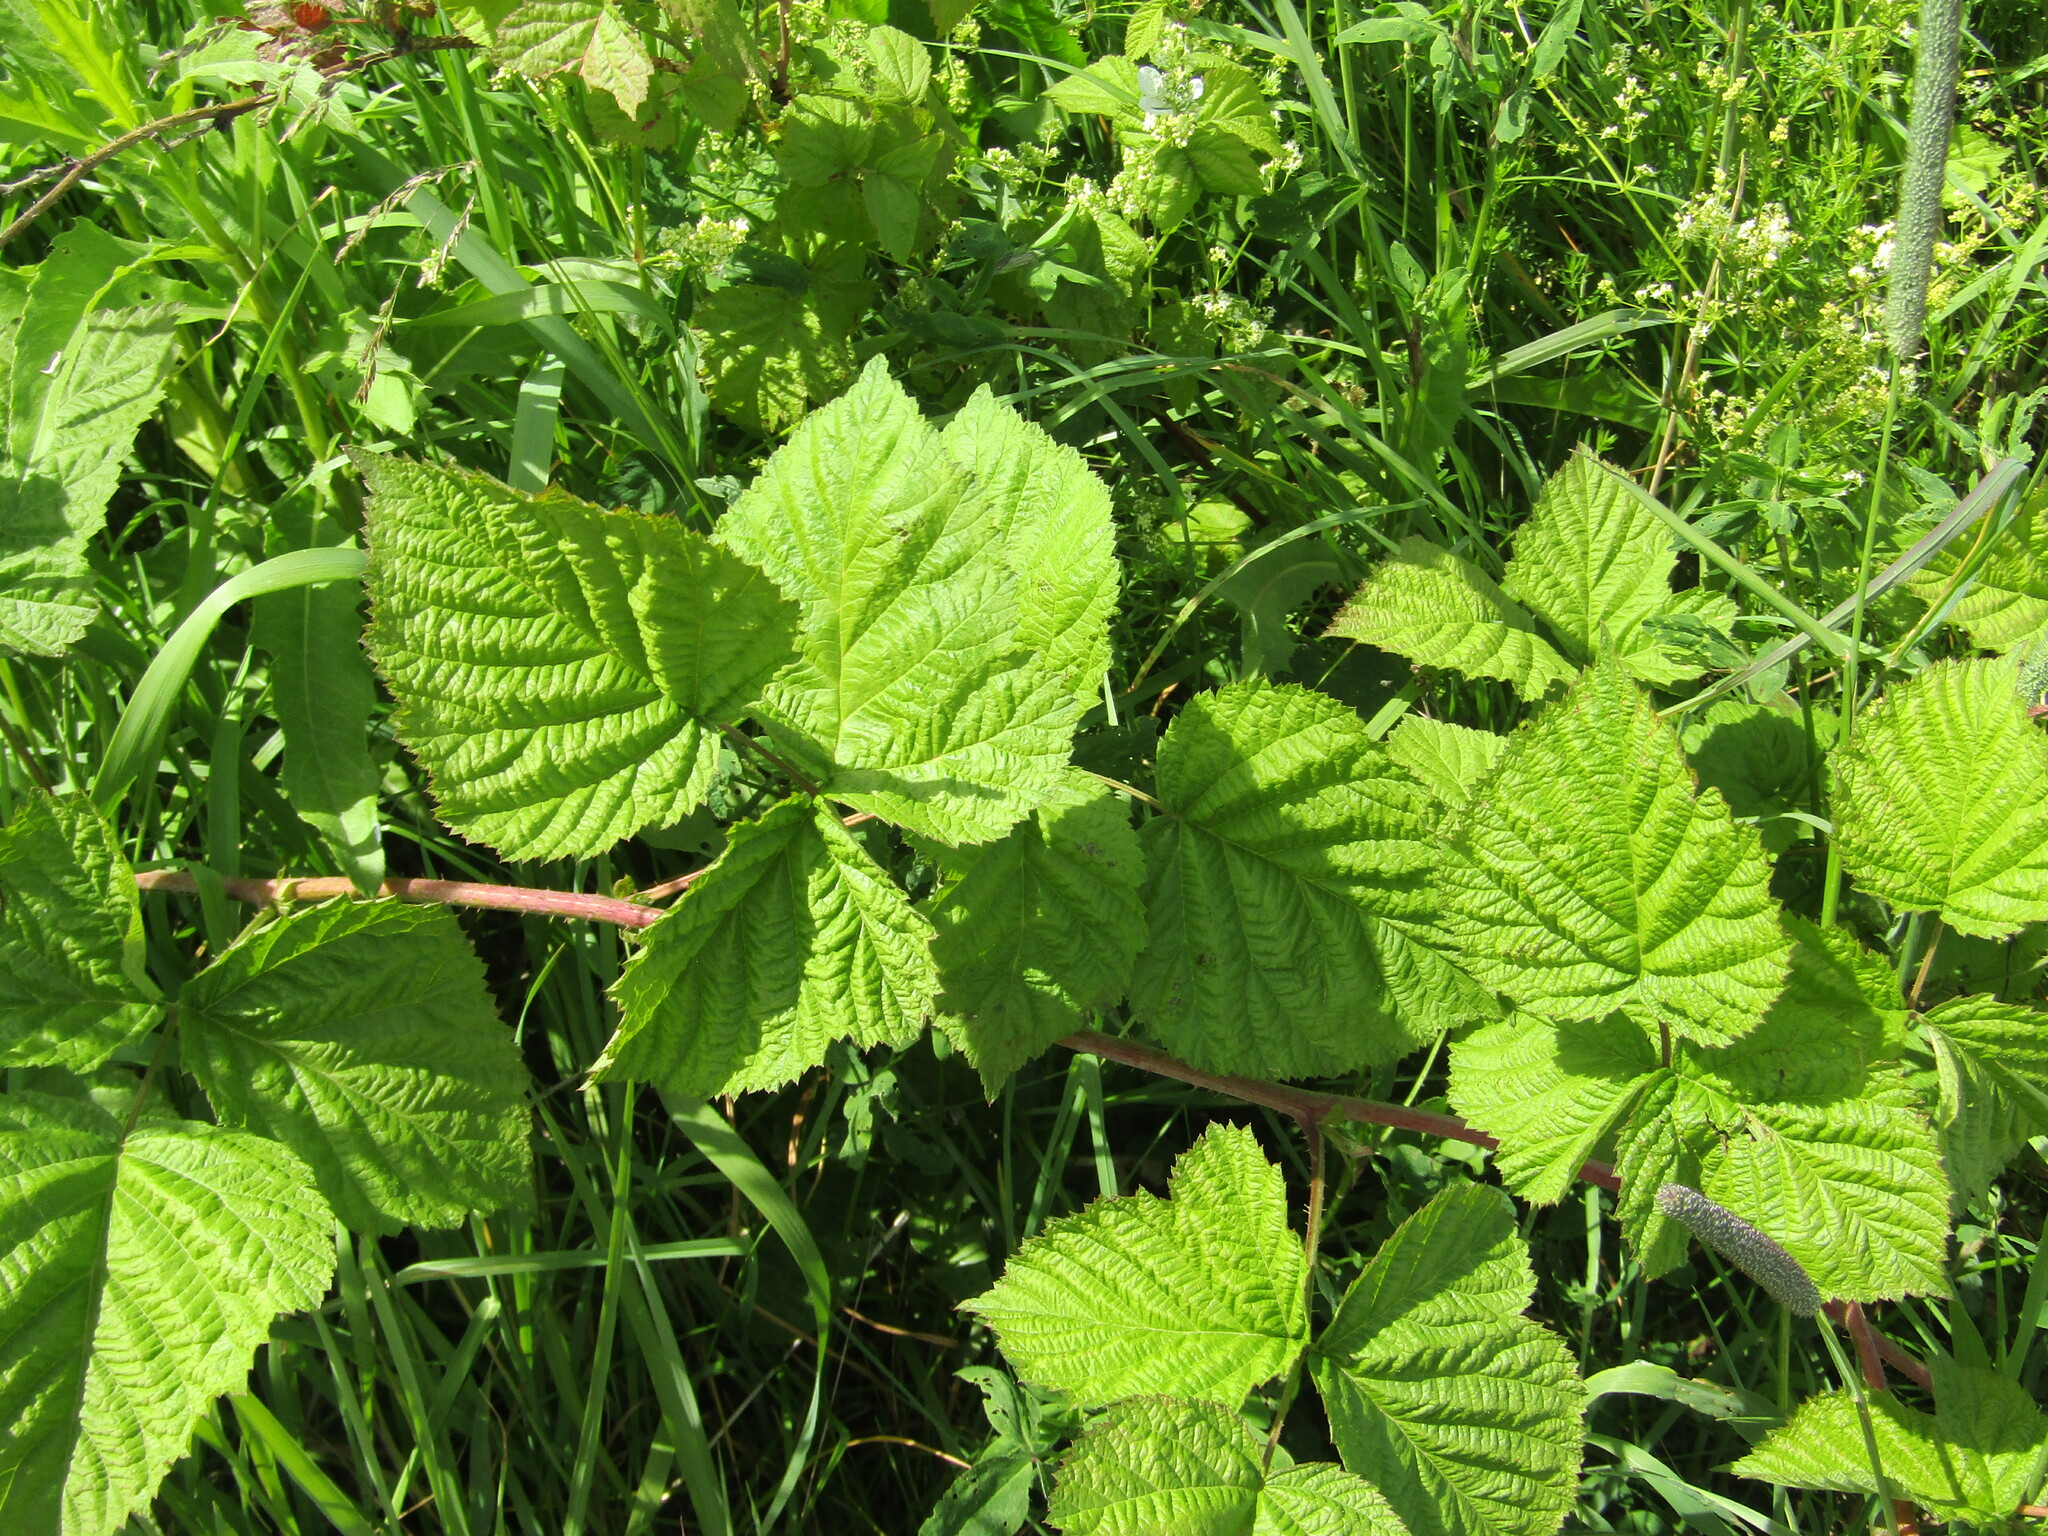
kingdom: Plantae
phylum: Tracheophyta
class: Magnoliopsida
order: Rosales
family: Rosaceae
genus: Rubus
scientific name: Rubus caesius
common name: Dewberry
